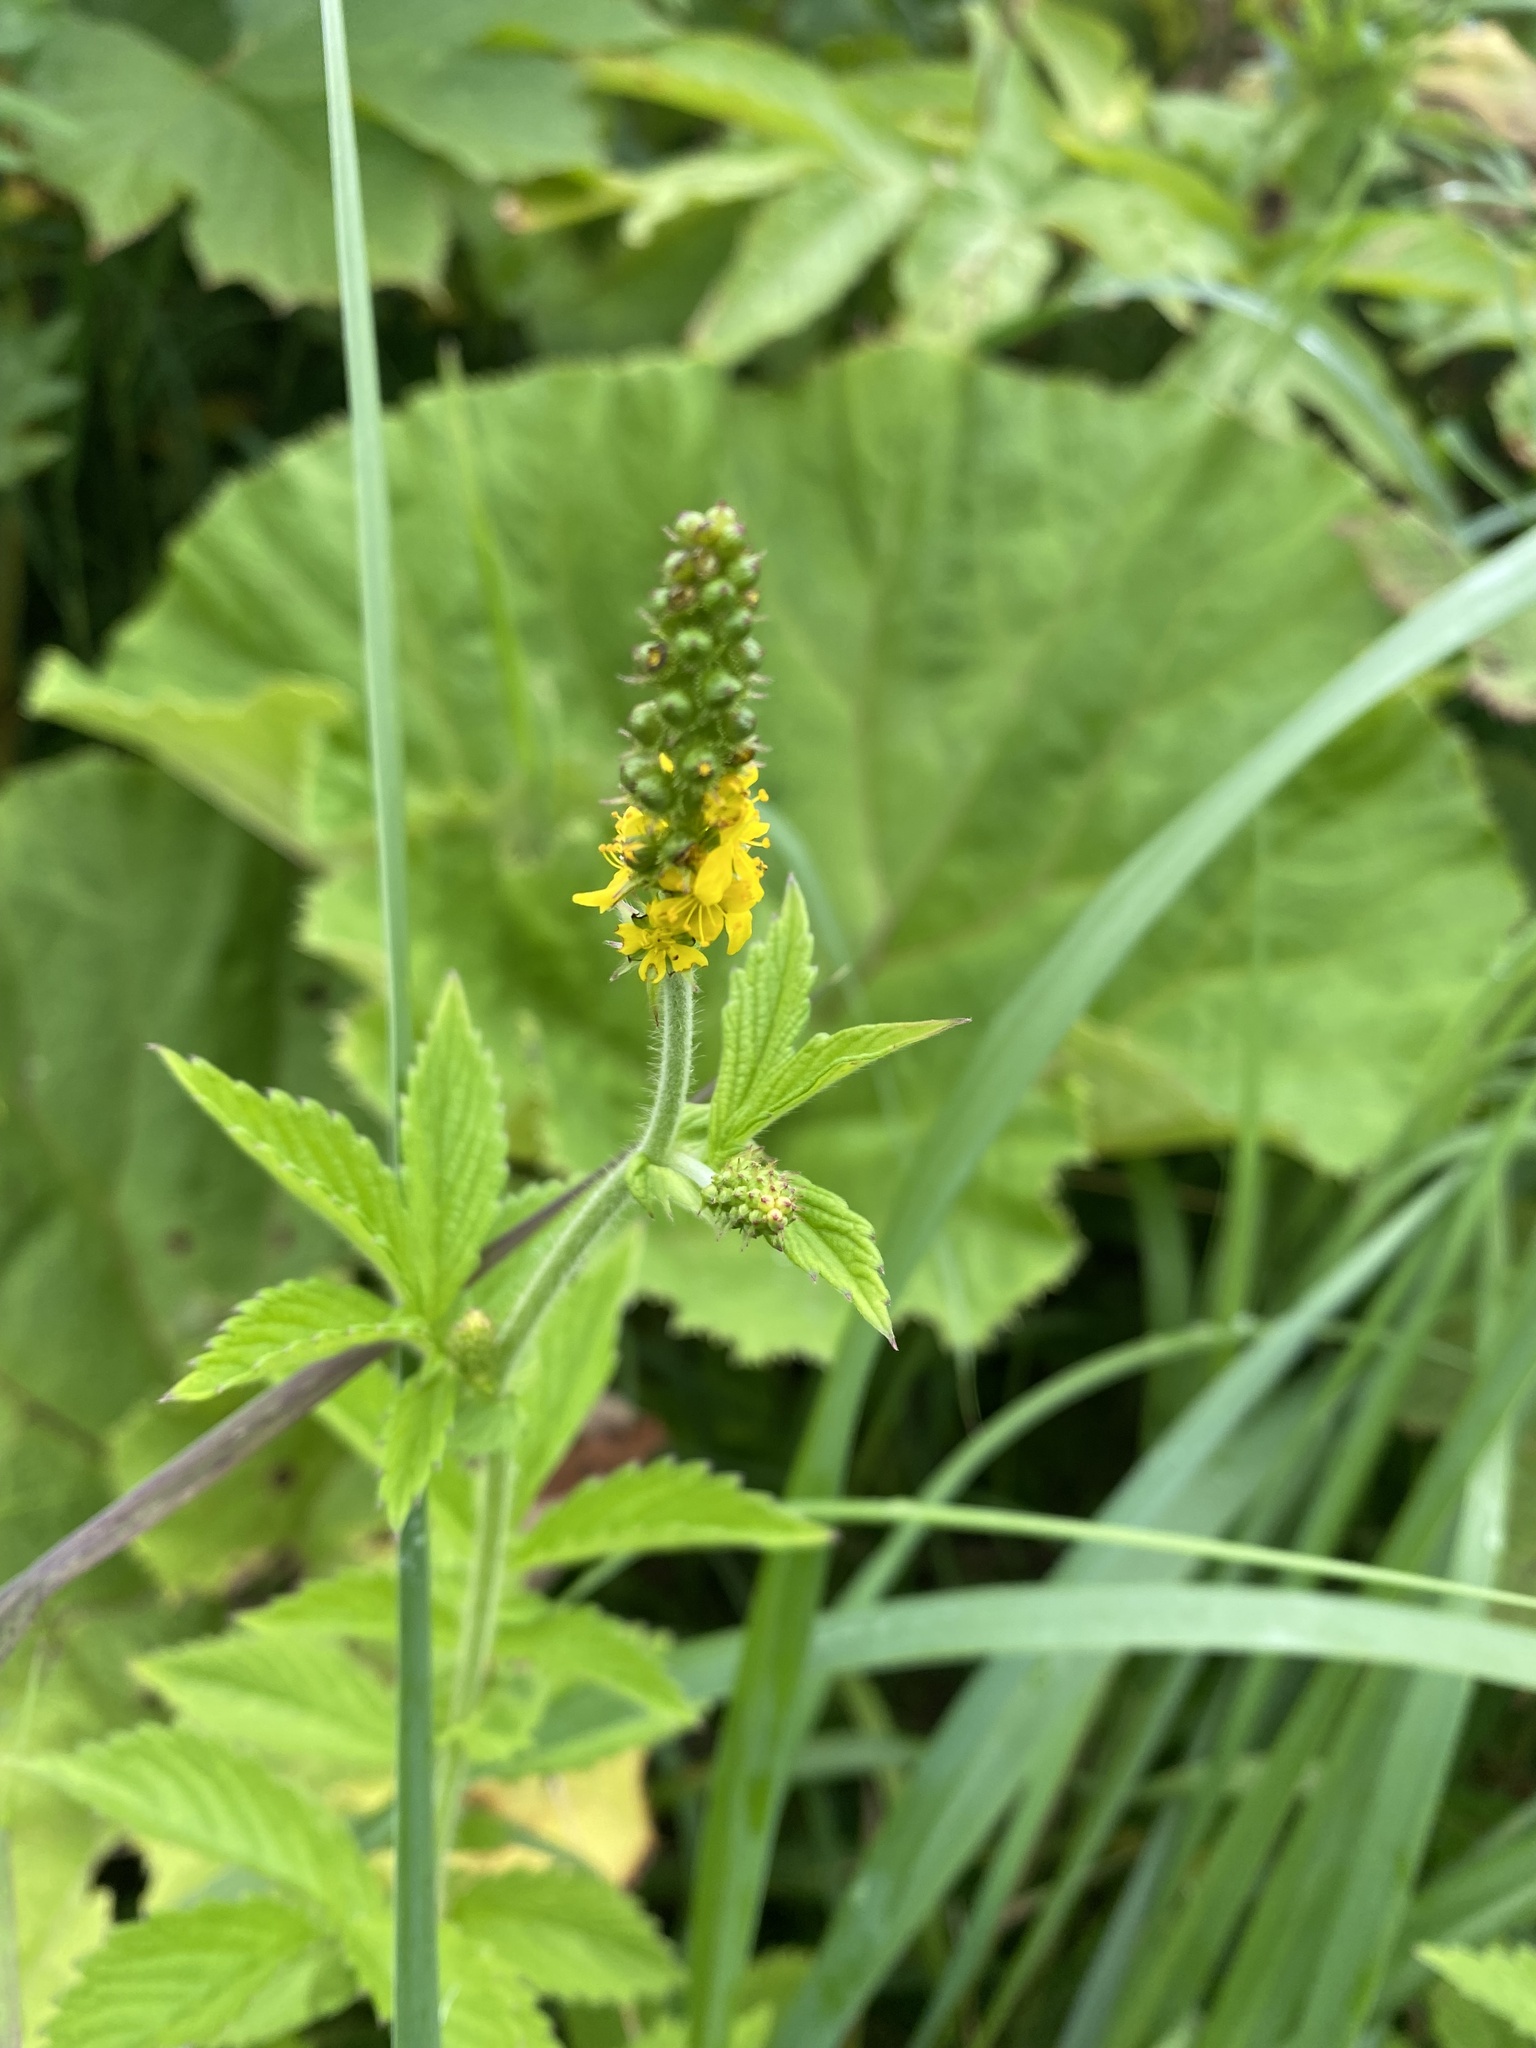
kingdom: Plantae
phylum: Tracheophyta
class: Magnoliopsida
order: Rosales
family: Rosaceae
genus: Agrimonia
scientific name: Agrimonia eupatoria
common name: Agrimony
